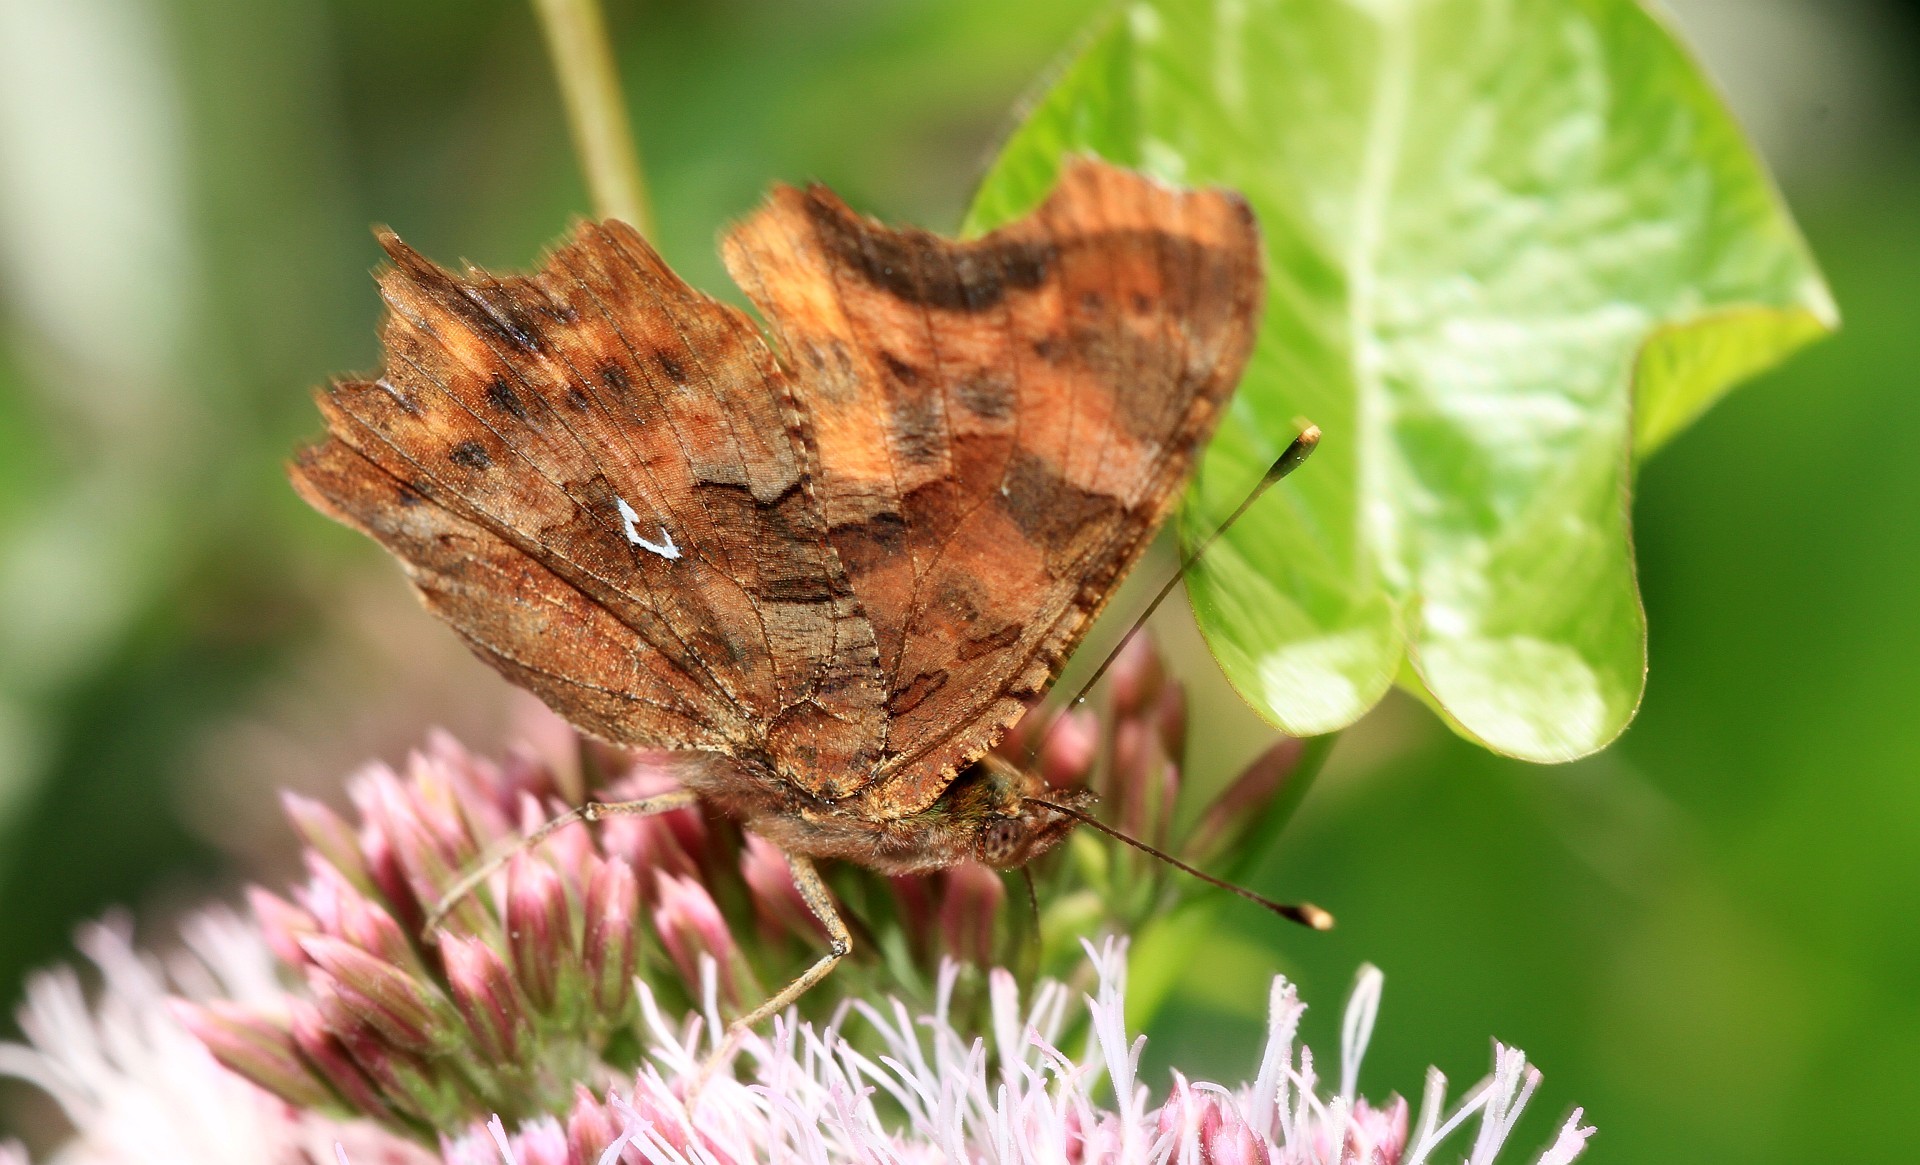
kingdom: Animalia
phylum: Arthropoda
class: Insecta
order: Lepidoptera
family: Nymphalidae
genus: Polygonia
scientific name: Polygonia c-album
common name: Comma
